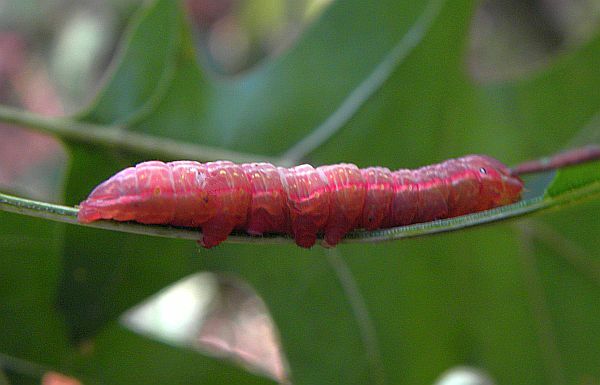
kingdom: Animalia
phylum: Arthropoda
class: Insecta
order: Lepidoptera
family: Notodontidae
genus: Peridea
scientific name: Peridea angulosa
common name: Angulose prominent
